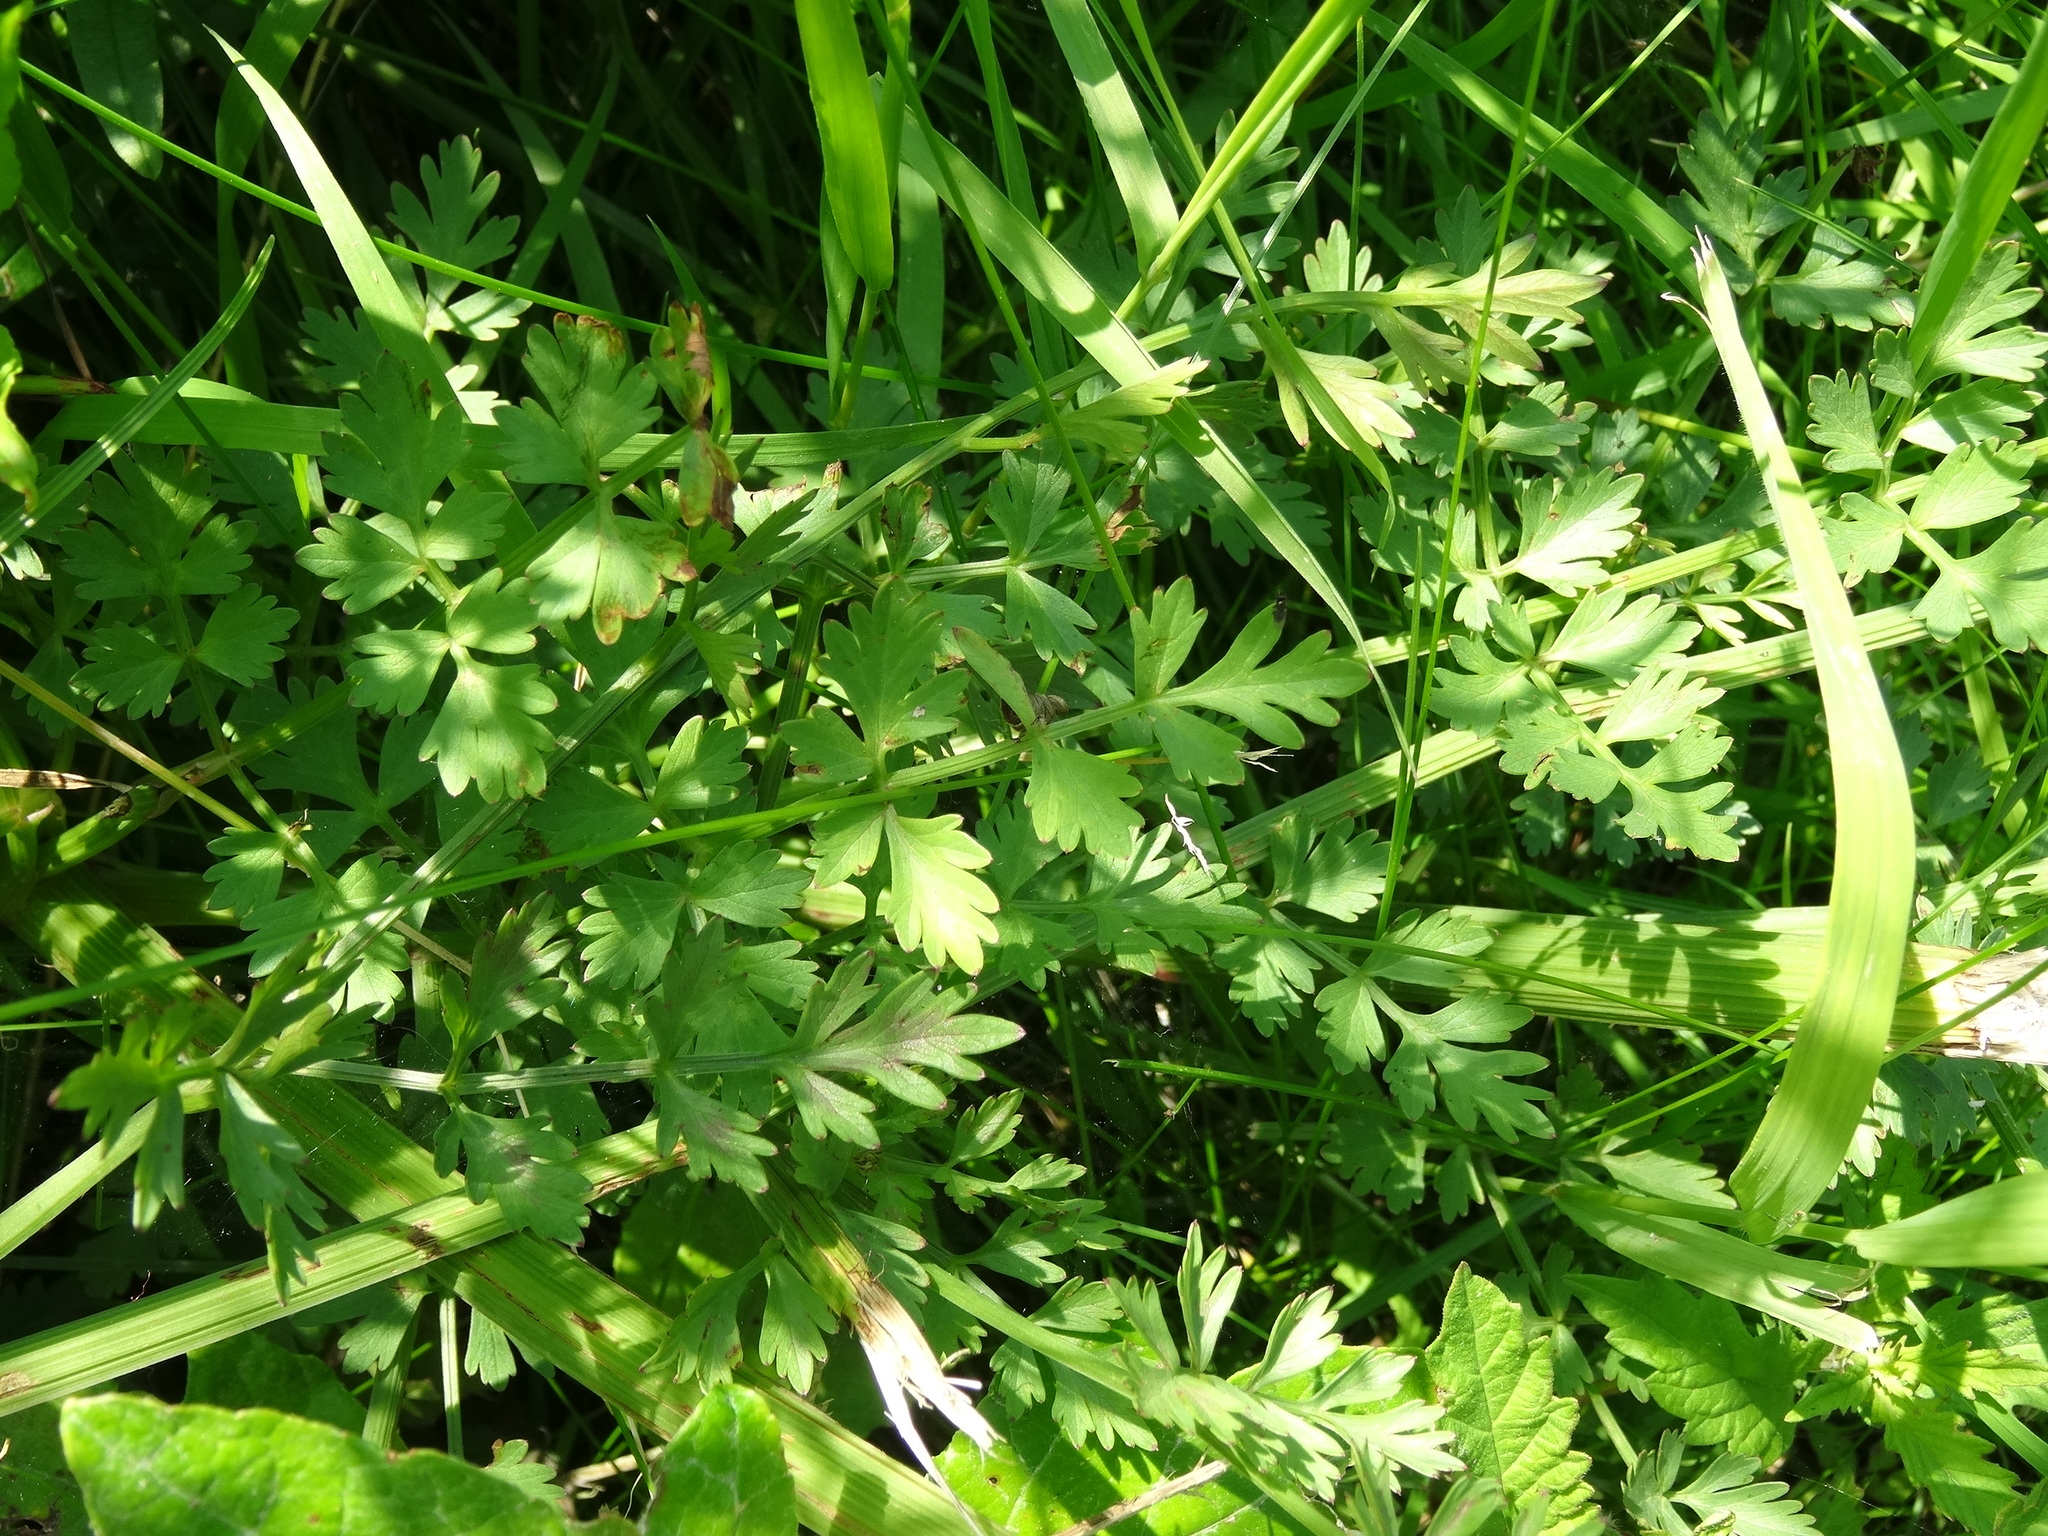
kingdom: Plantae
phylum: Tracheophyta
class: Magnoliopsida
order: Apiales
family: Apiaceae
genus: Oenanthe
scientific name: Oenanthe crocata
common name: Hemlock water-dropwort
